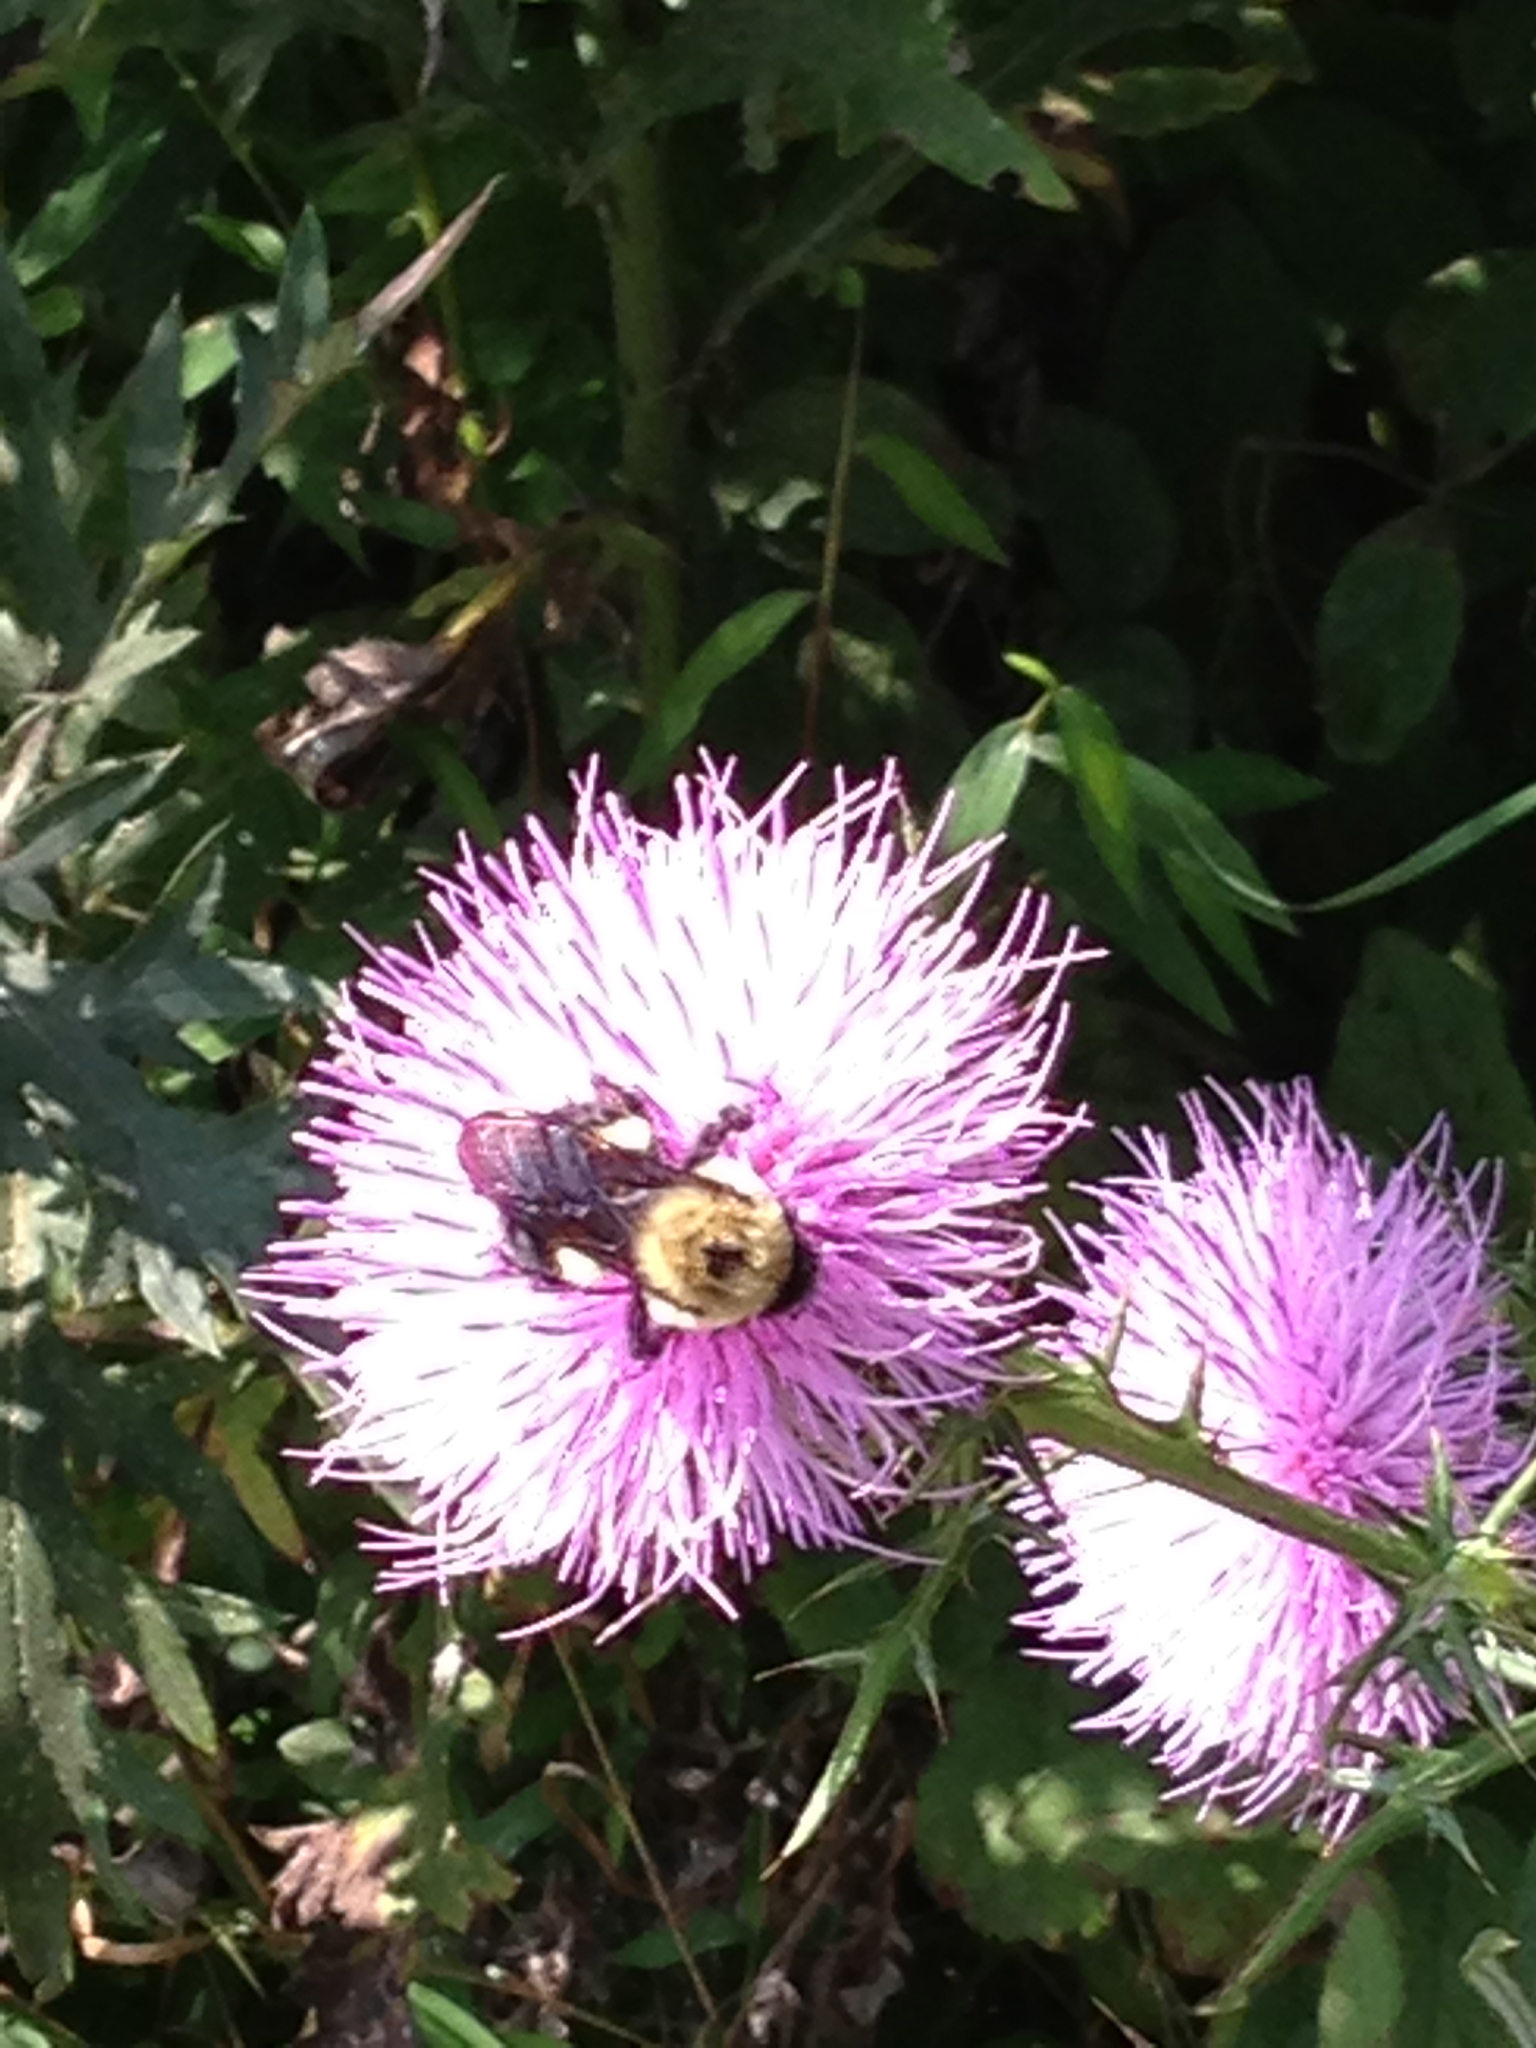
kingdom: Animalia
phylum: Arthropoda
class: Insecta
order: Hymenoptera
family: Apidae
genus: Bombus
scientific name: Bombus griseocollis
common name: Brown-belted bumble bee
